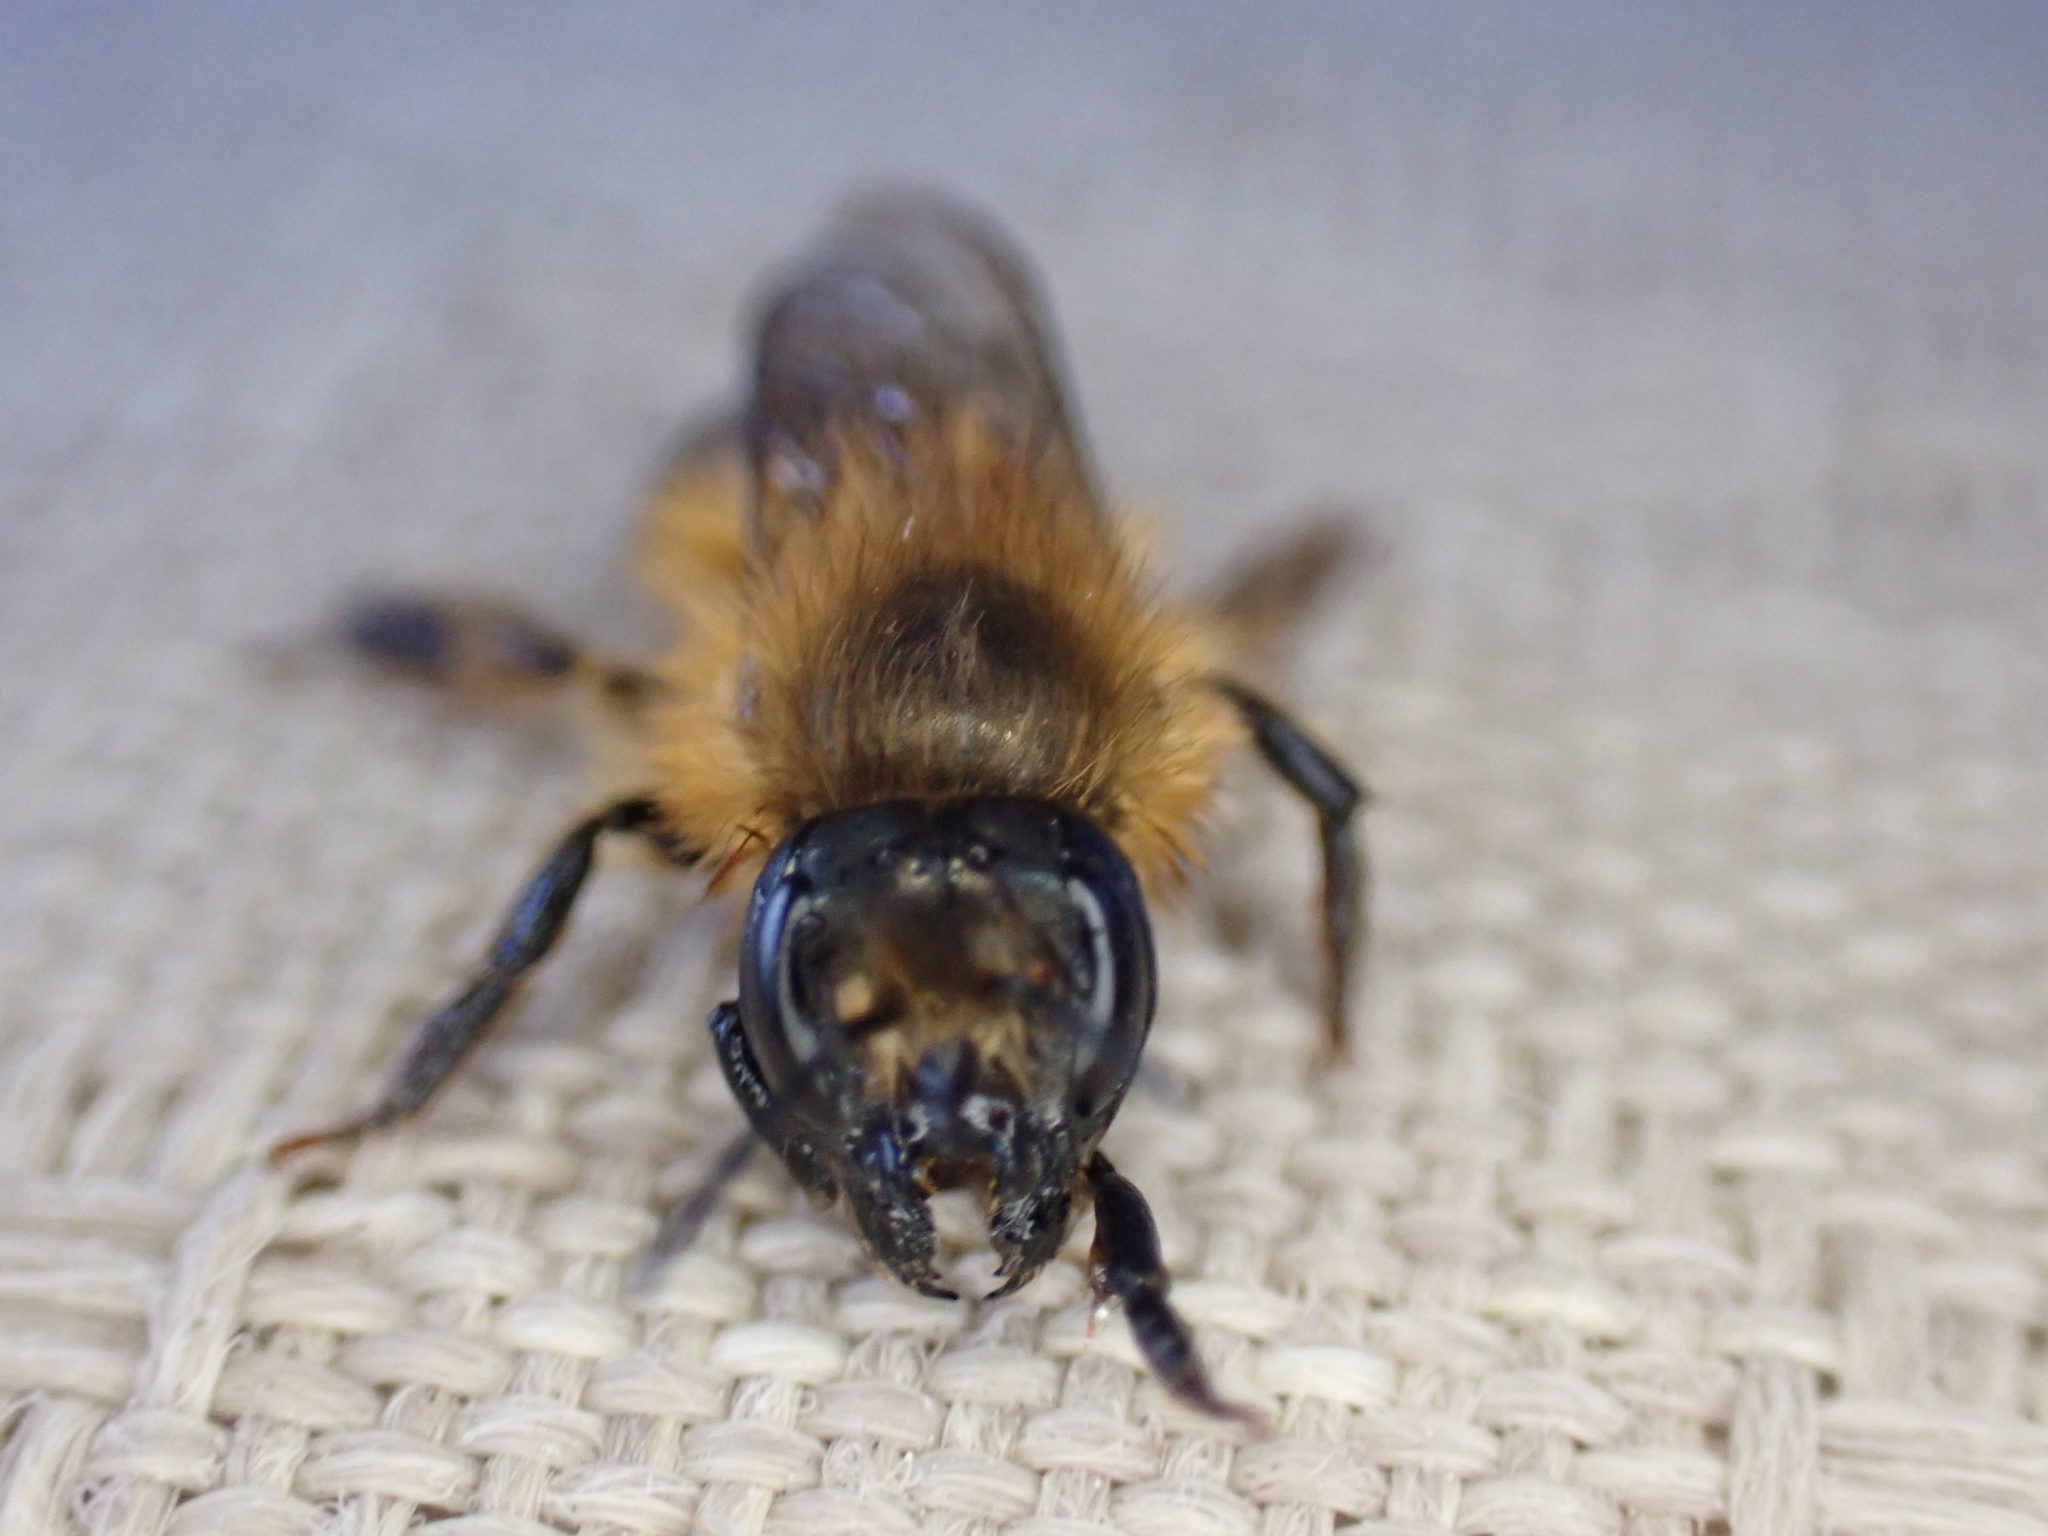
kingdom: Animalia
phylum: Arthropoda
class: Insecta
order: Hymenoptera
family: Megachilidae
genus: Osmia
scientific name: Osmia taurus
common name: Taurus mason bee
